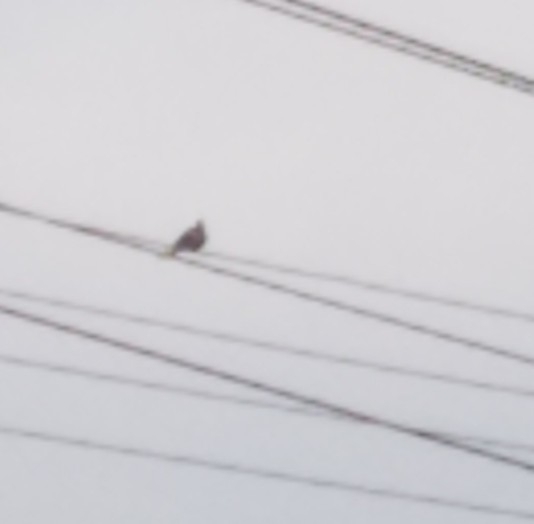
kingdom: Animalia
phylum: Chordata
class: Aves
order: Columbiformes
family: Columbidae
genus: Zenaida
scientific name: Zenaida macroura
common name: Mourning dove
